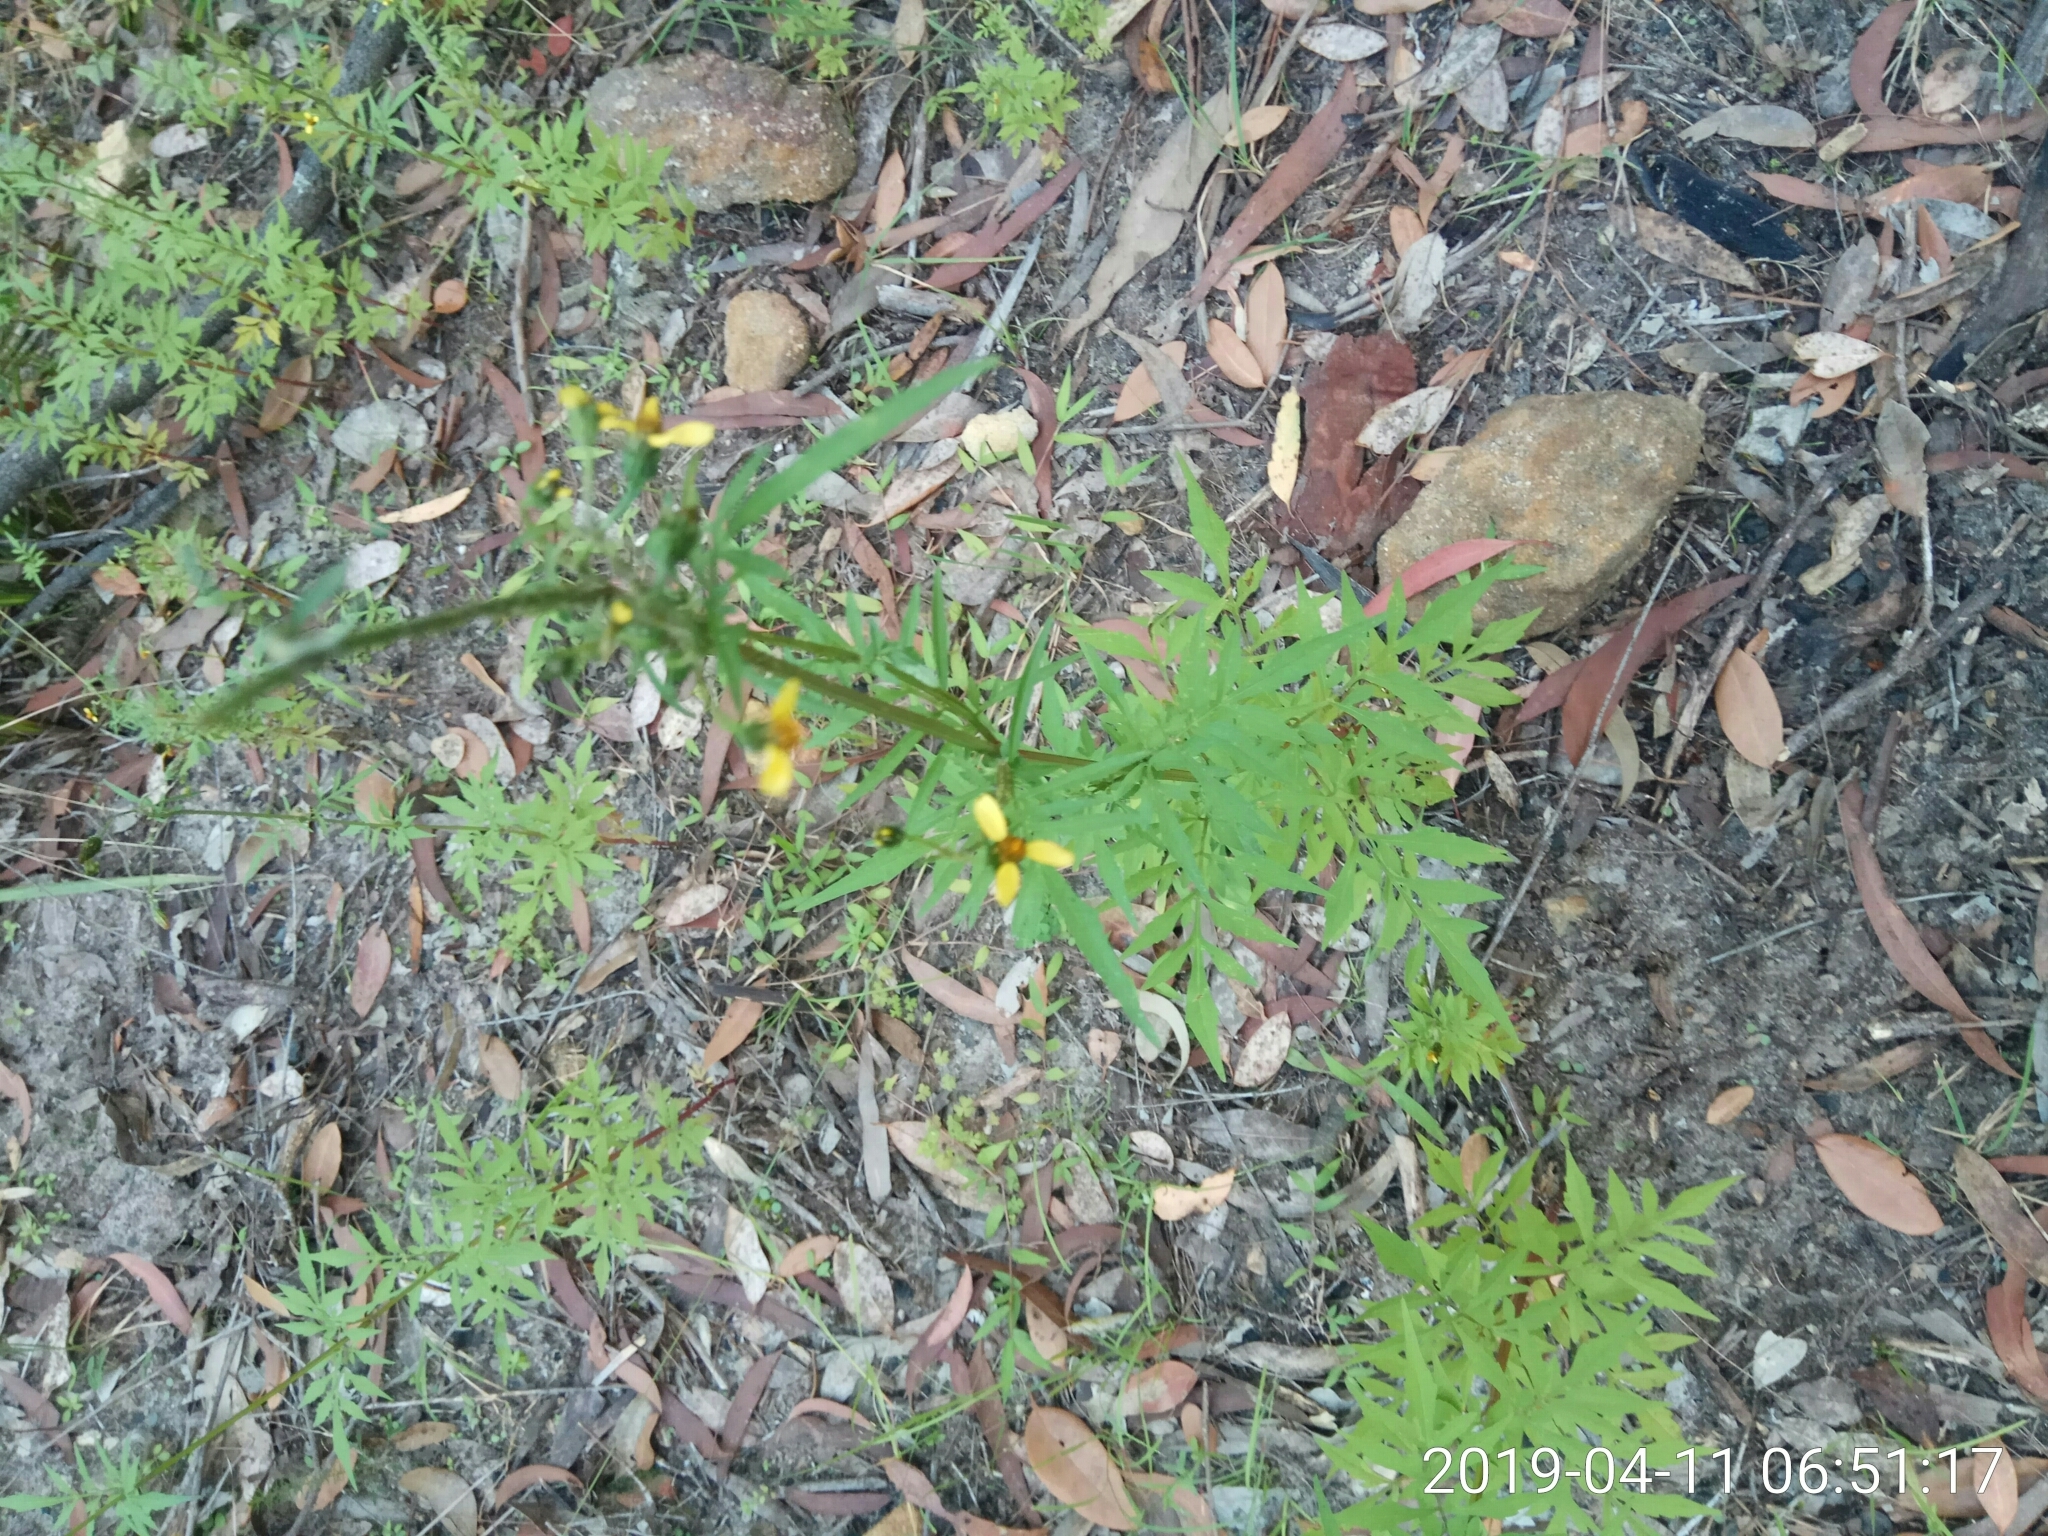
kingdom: Plantae
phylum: Tracheophyta
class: Magnoliopsida
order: Asterales
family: Asteraceae
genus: Bidens
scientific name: Bidens bipinnata
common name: Spanish-needles
